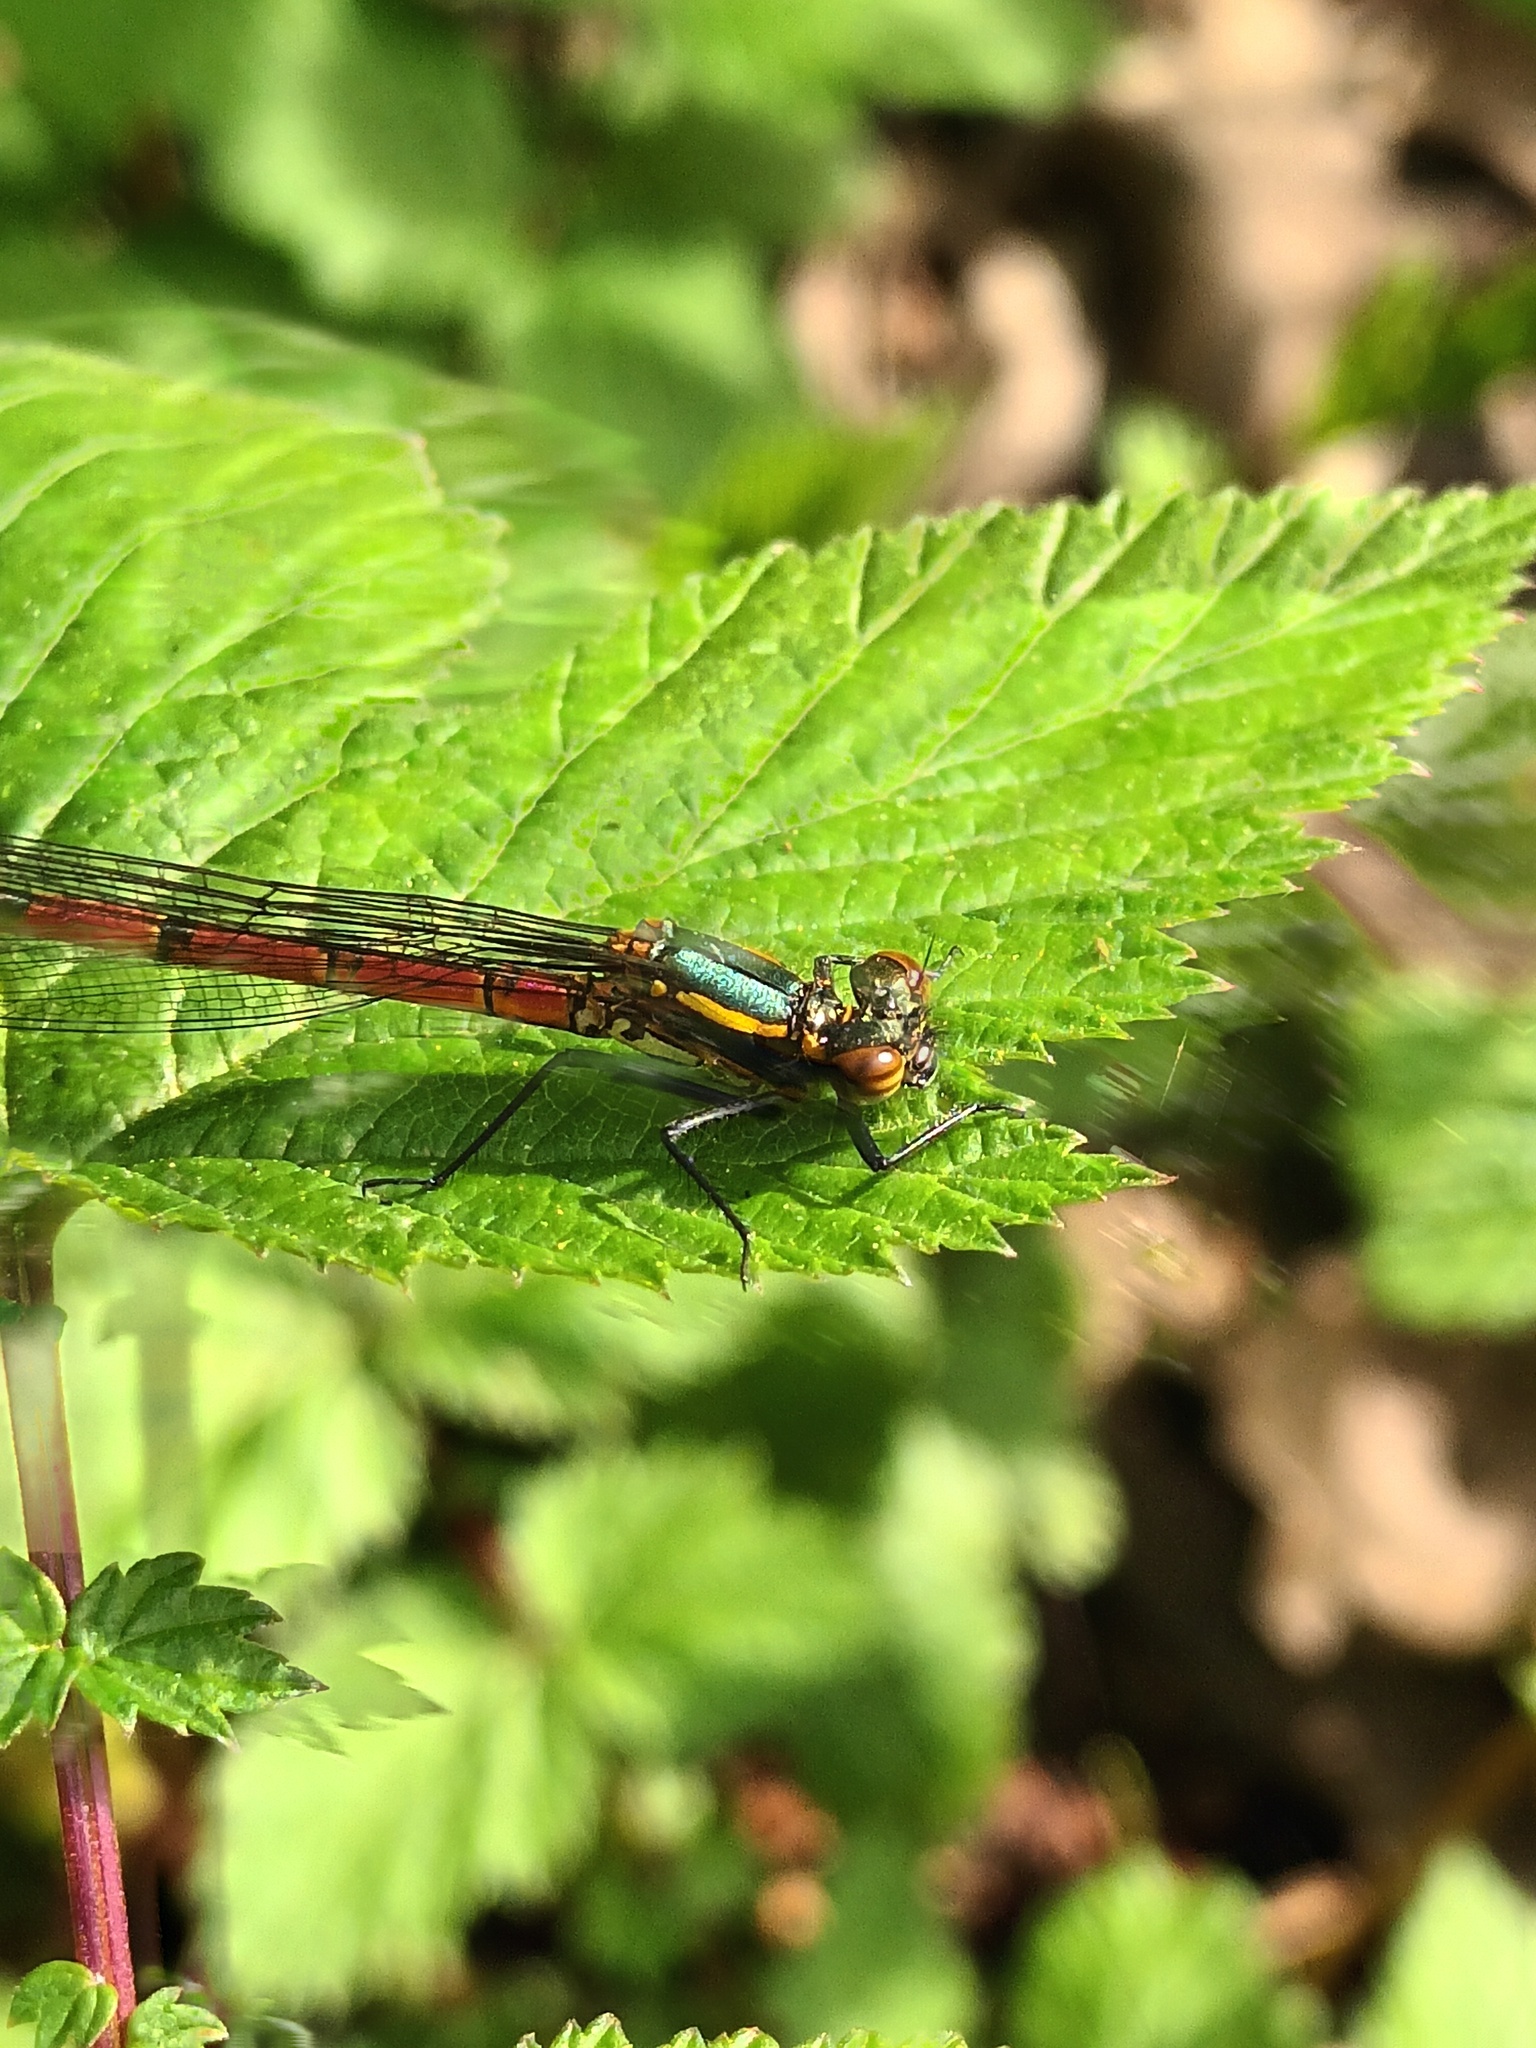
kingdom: Animalia
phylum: Arthropoda
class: Insecta
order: Odonata
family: Coenagrionidae
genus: Pyrrhosoma
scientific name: Pyrrhosoma nymphula
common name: Large red damsel
